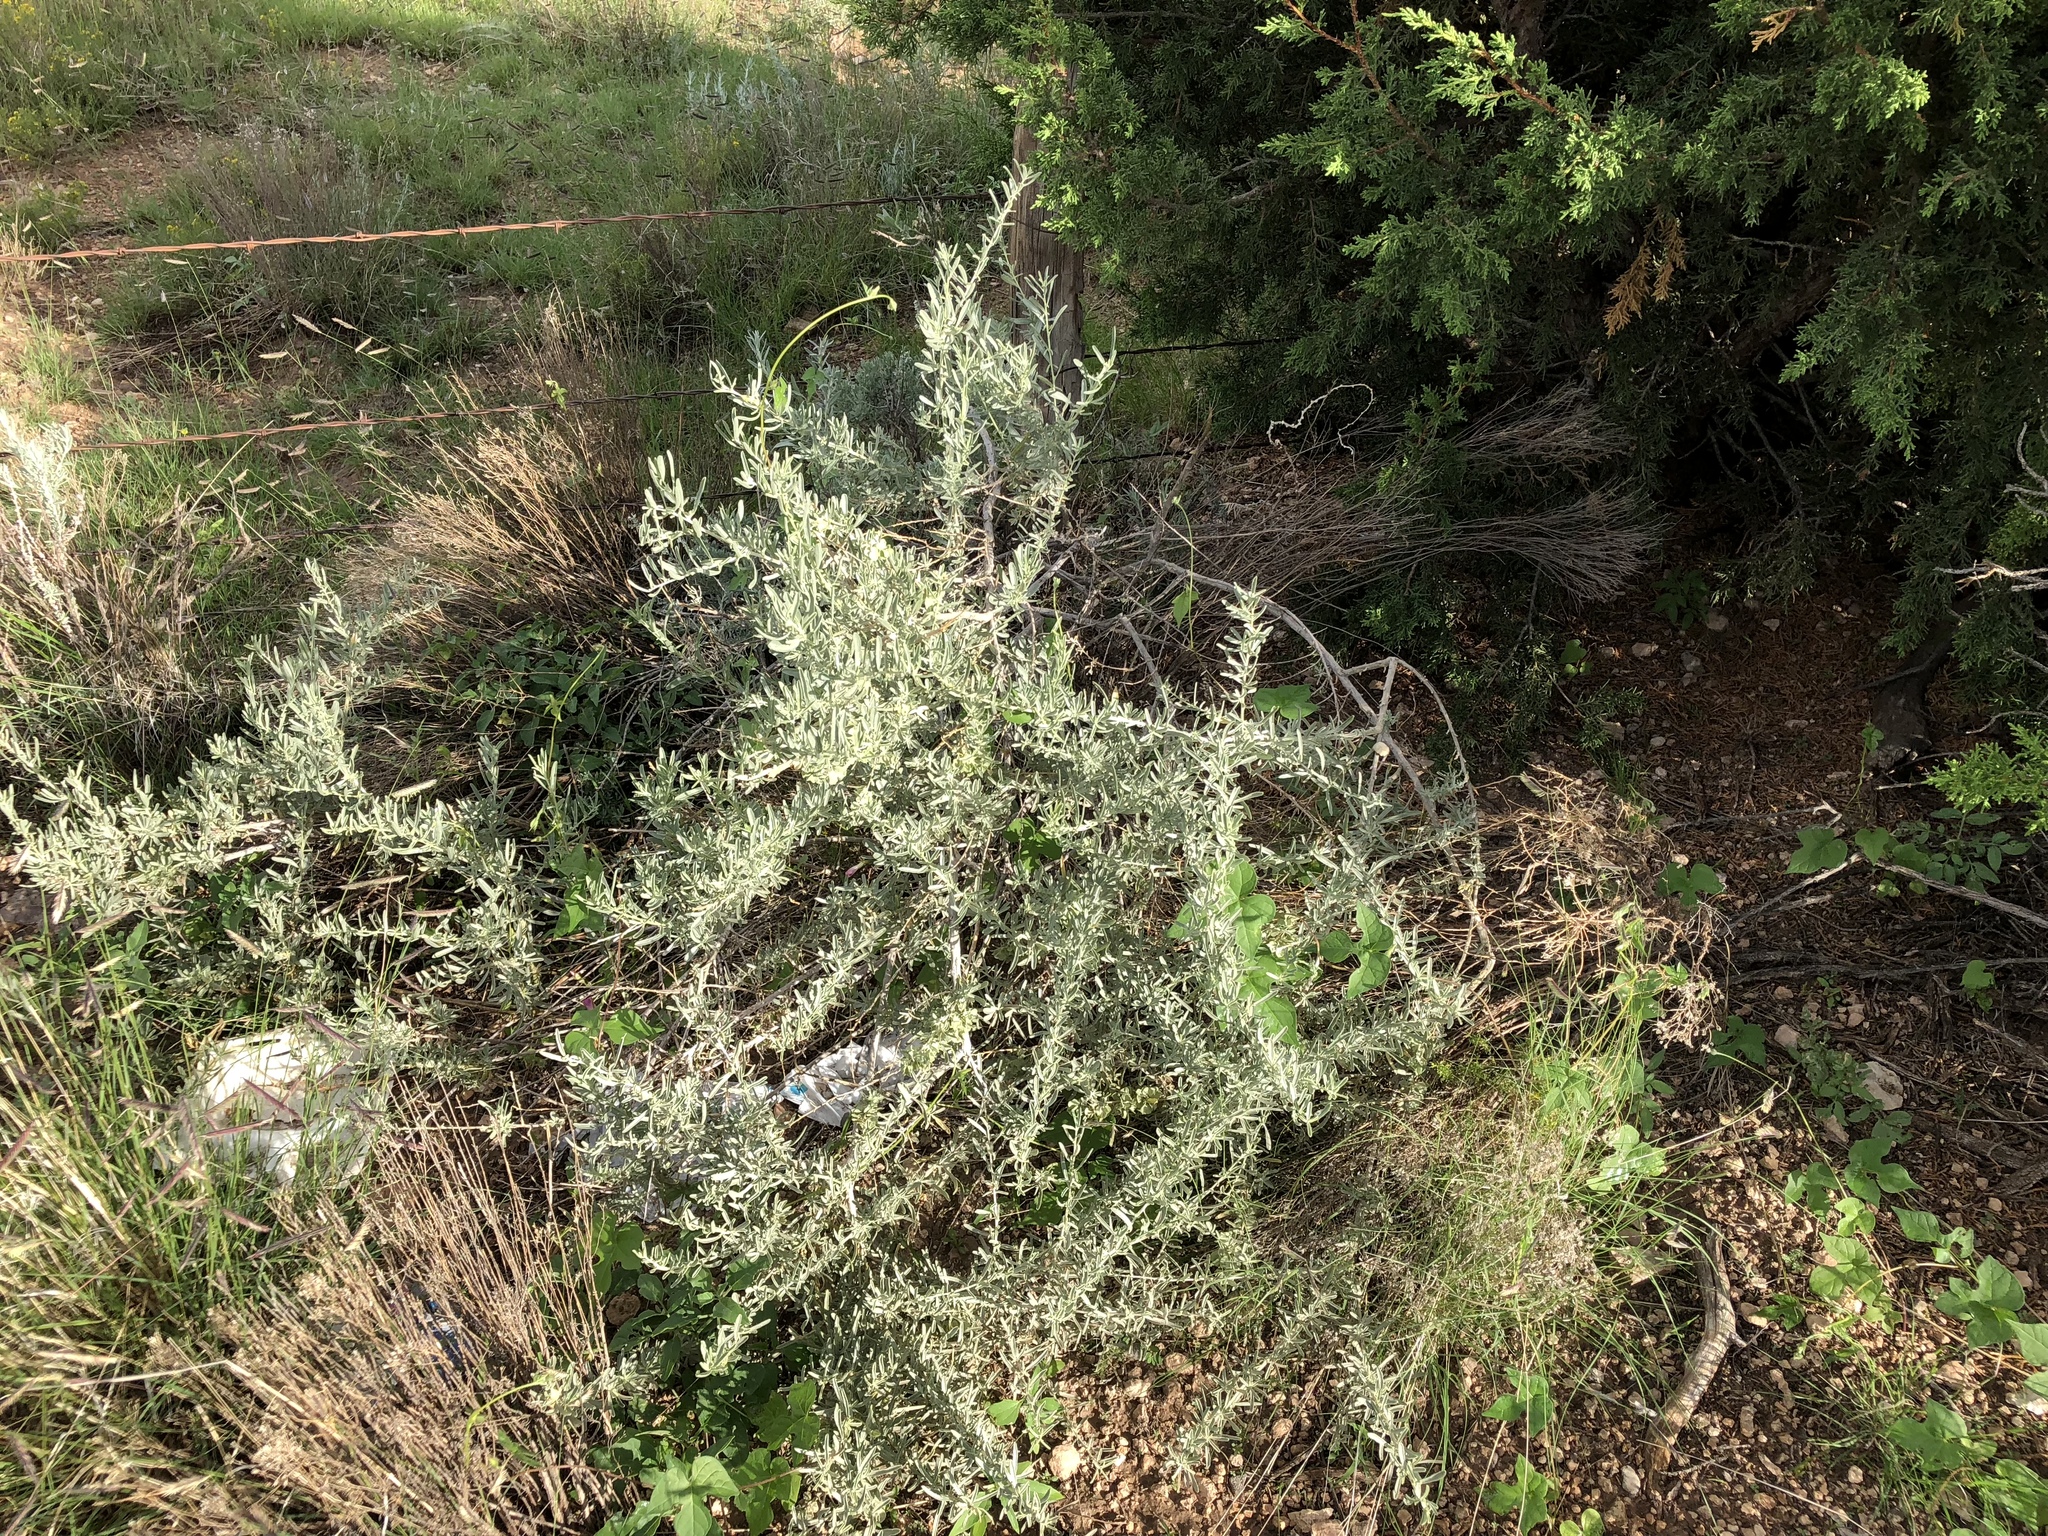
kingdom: Plantae
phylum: Tracheophyta
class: Magnoliopsida
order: Caryophyllales
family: Amaranthaceae
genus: Atriplex
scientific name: Atriplex canescens
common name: Four-wing saltbush
